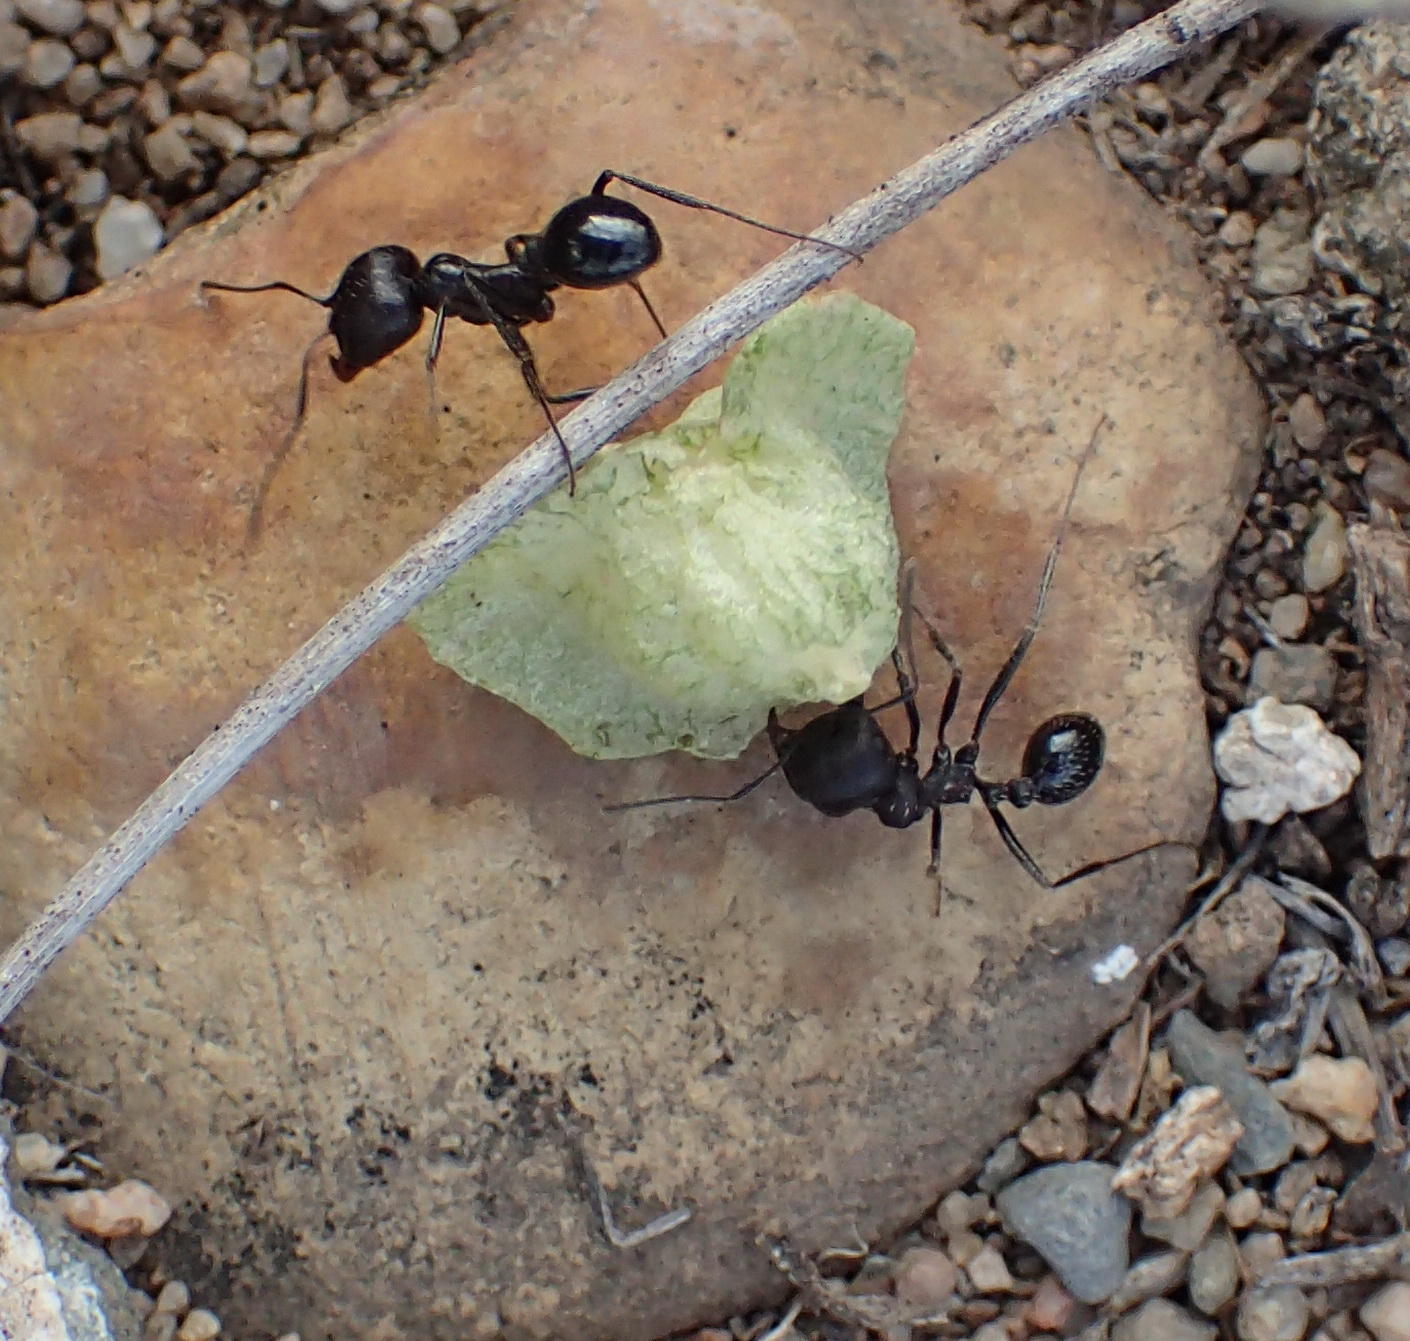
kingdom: Animalia
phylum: Arthropoda
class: Insecta
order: Hymenoptera
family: Formicidae
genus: Messor
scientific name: Messor capensis
